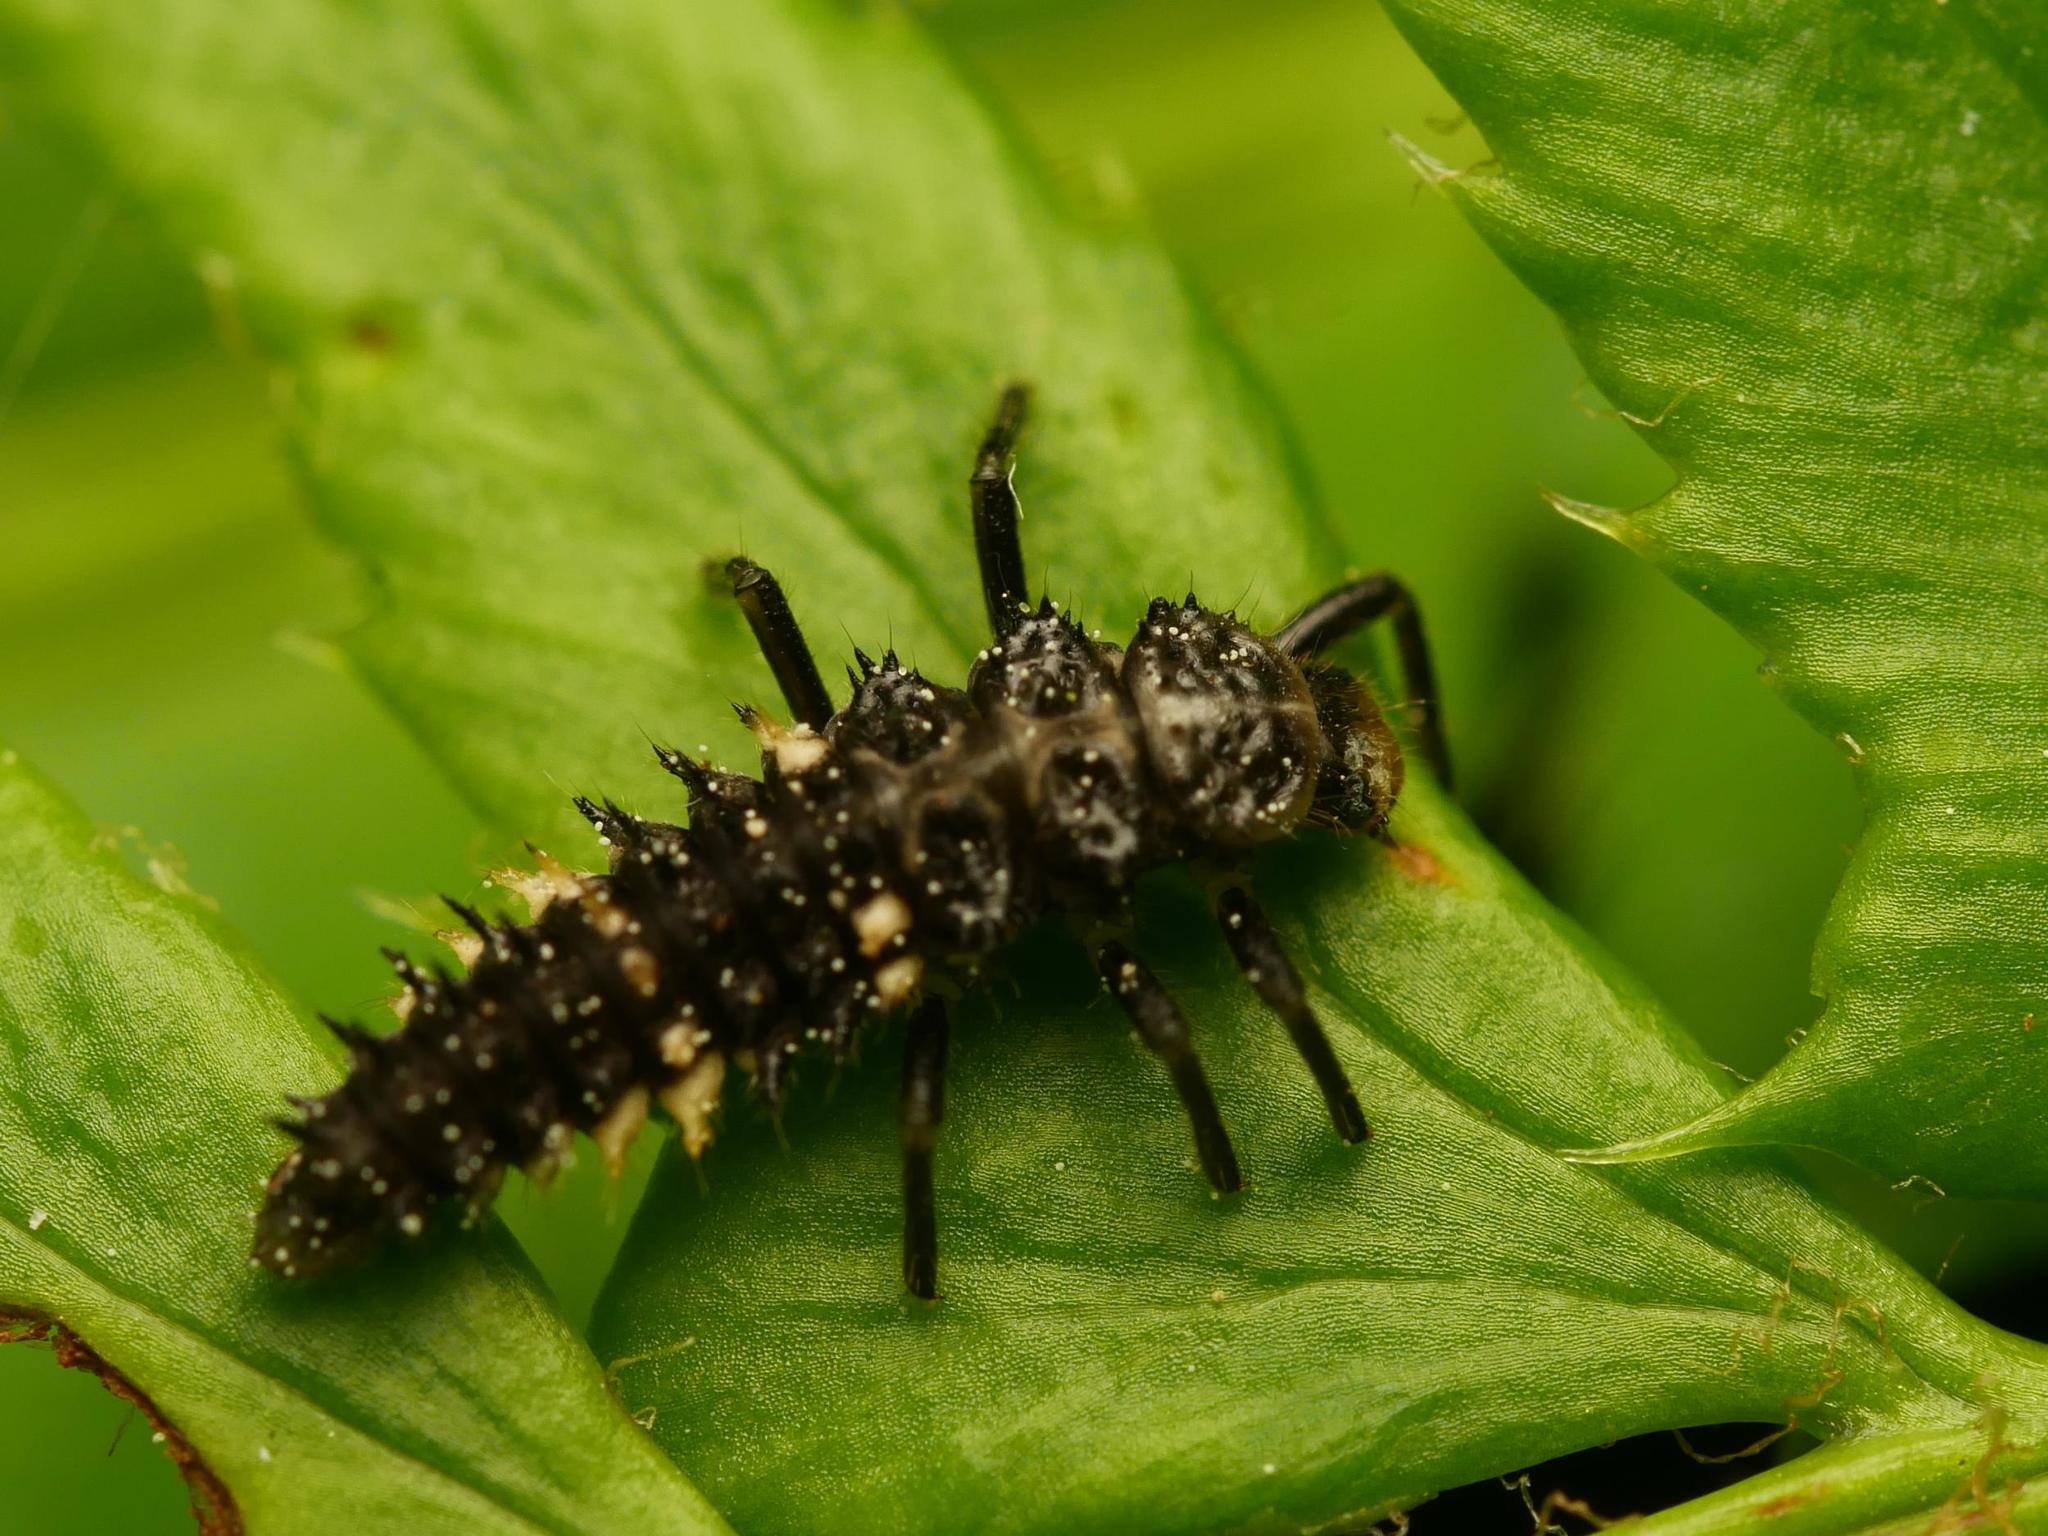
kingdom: Animalia
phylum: Arthropoda
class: Insecta
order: Coleoptera
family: Coccinellidae
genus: Calvia
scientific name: Calvia quatuordecimguttata
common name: Cream-spot ladybird
